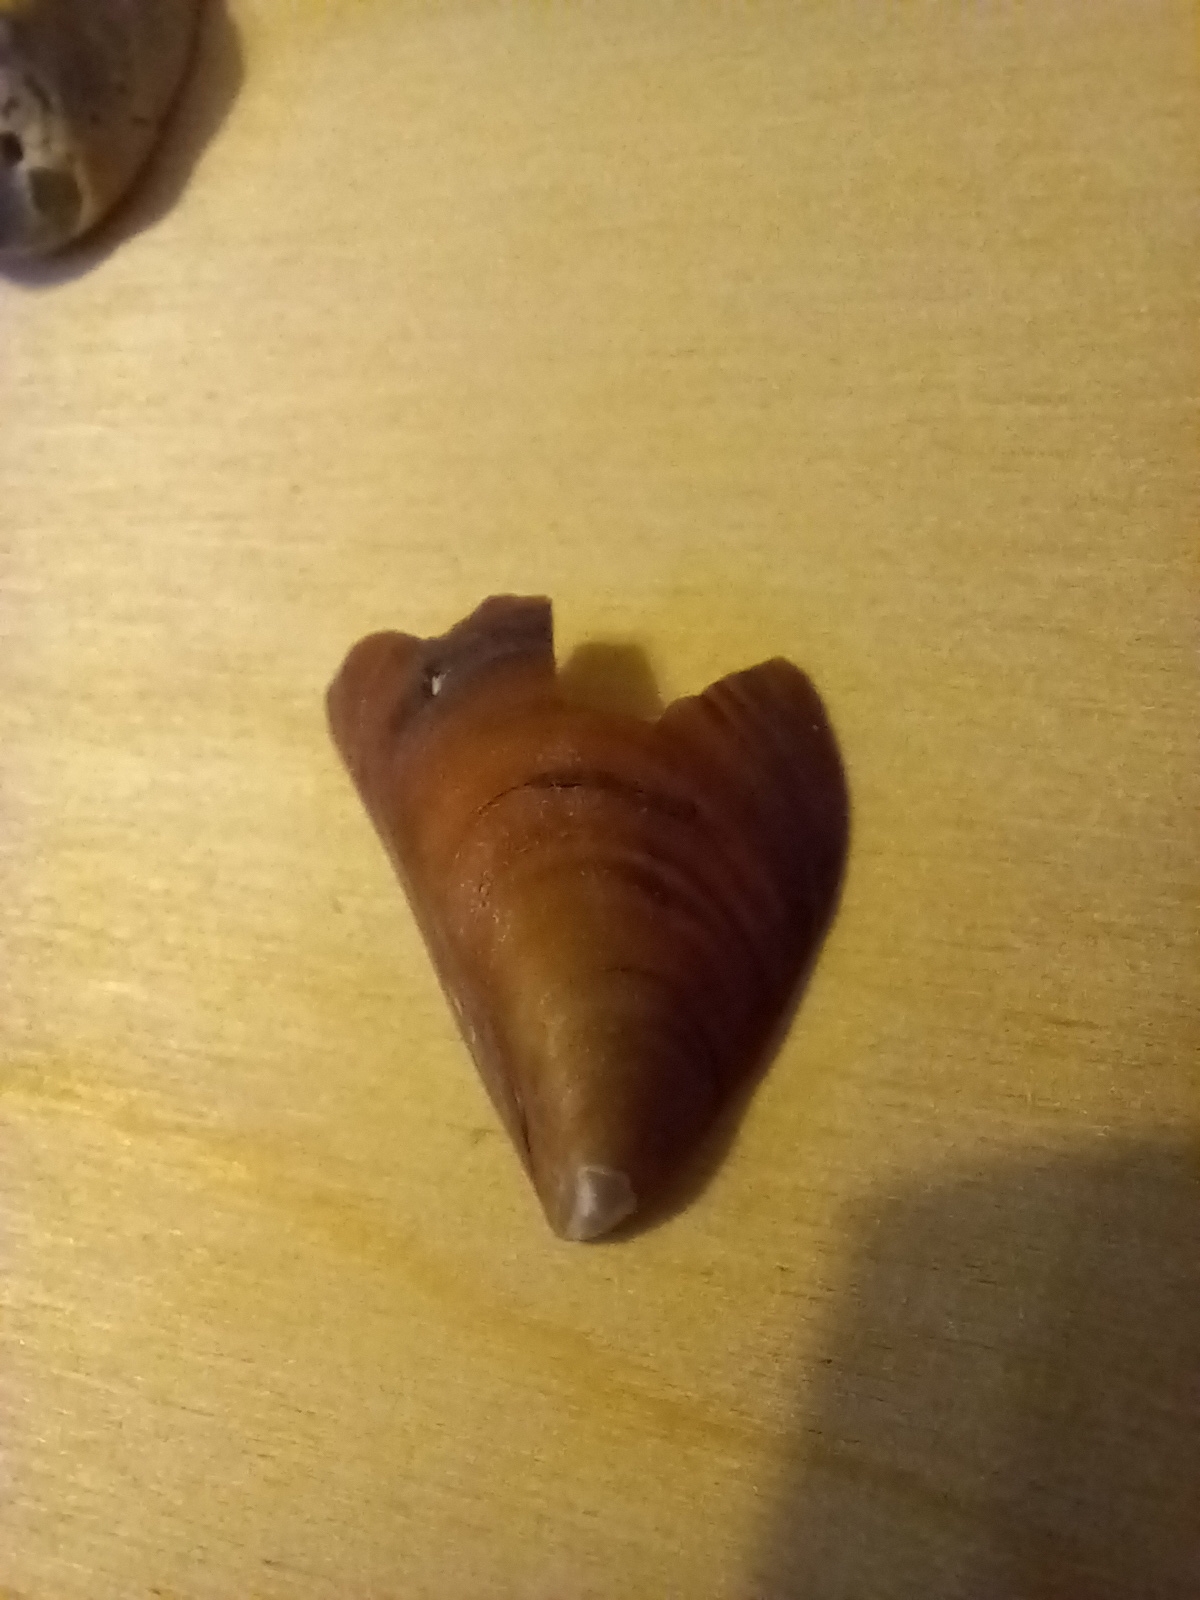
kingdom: Animalia
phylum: Mollusca
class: Bivalvia
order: Mytilida
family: Mytilidae
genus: Mytilus
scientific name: Mytilus galloprovincialis
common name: Mediterranean mussel
